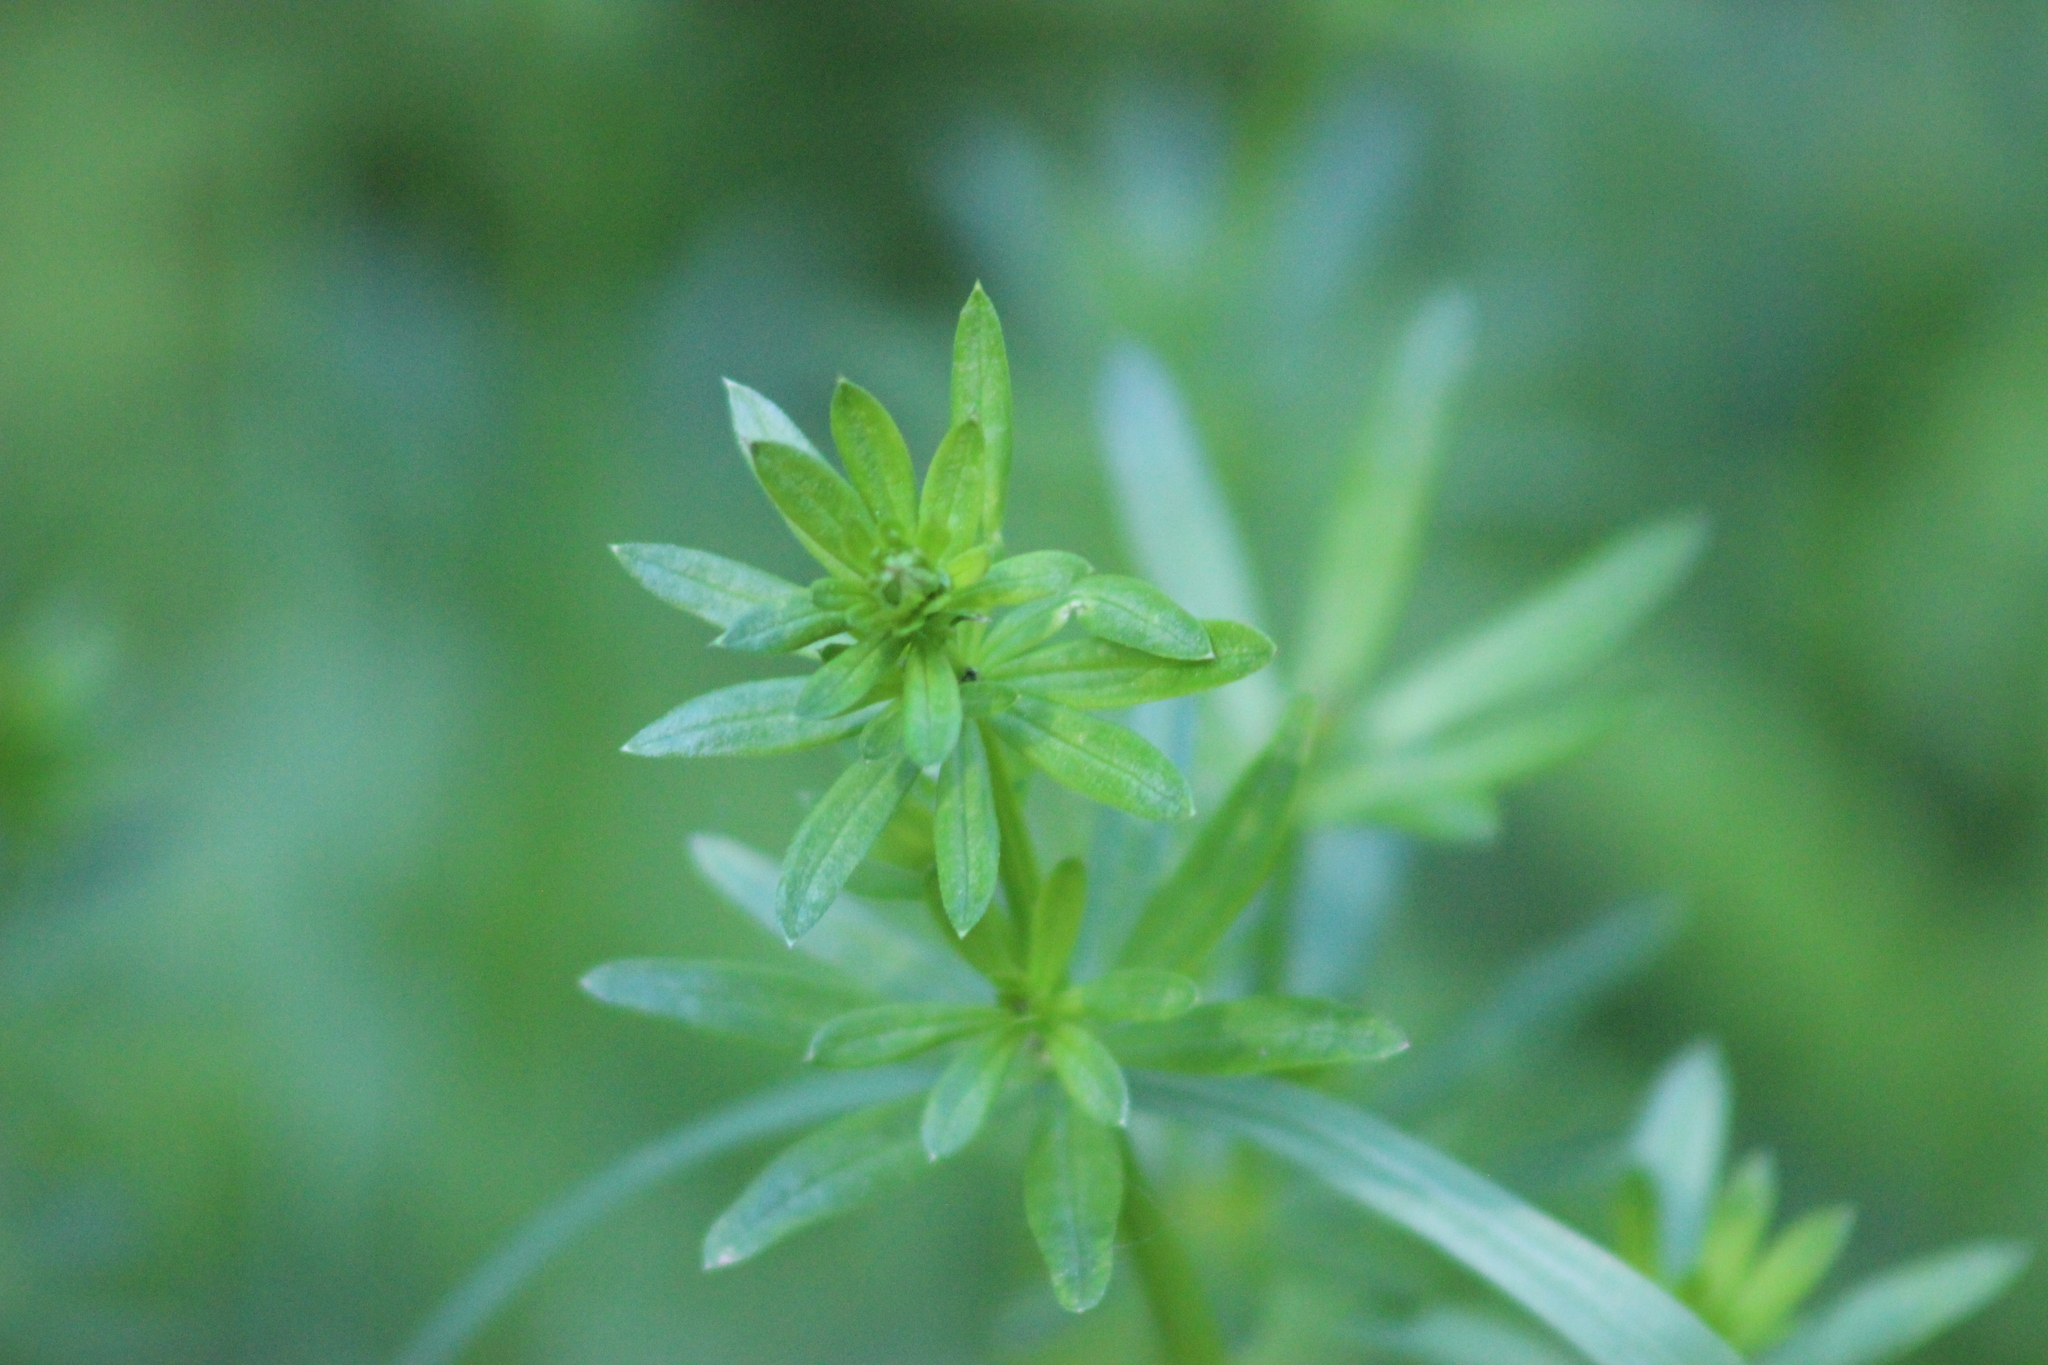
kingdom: Plantae
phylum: Tracheophyta
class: Magnoliopsida
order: Gentianales
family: Rubiaceae
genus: Galium
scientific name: Galium mollugo
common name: Hedge bedstraw
